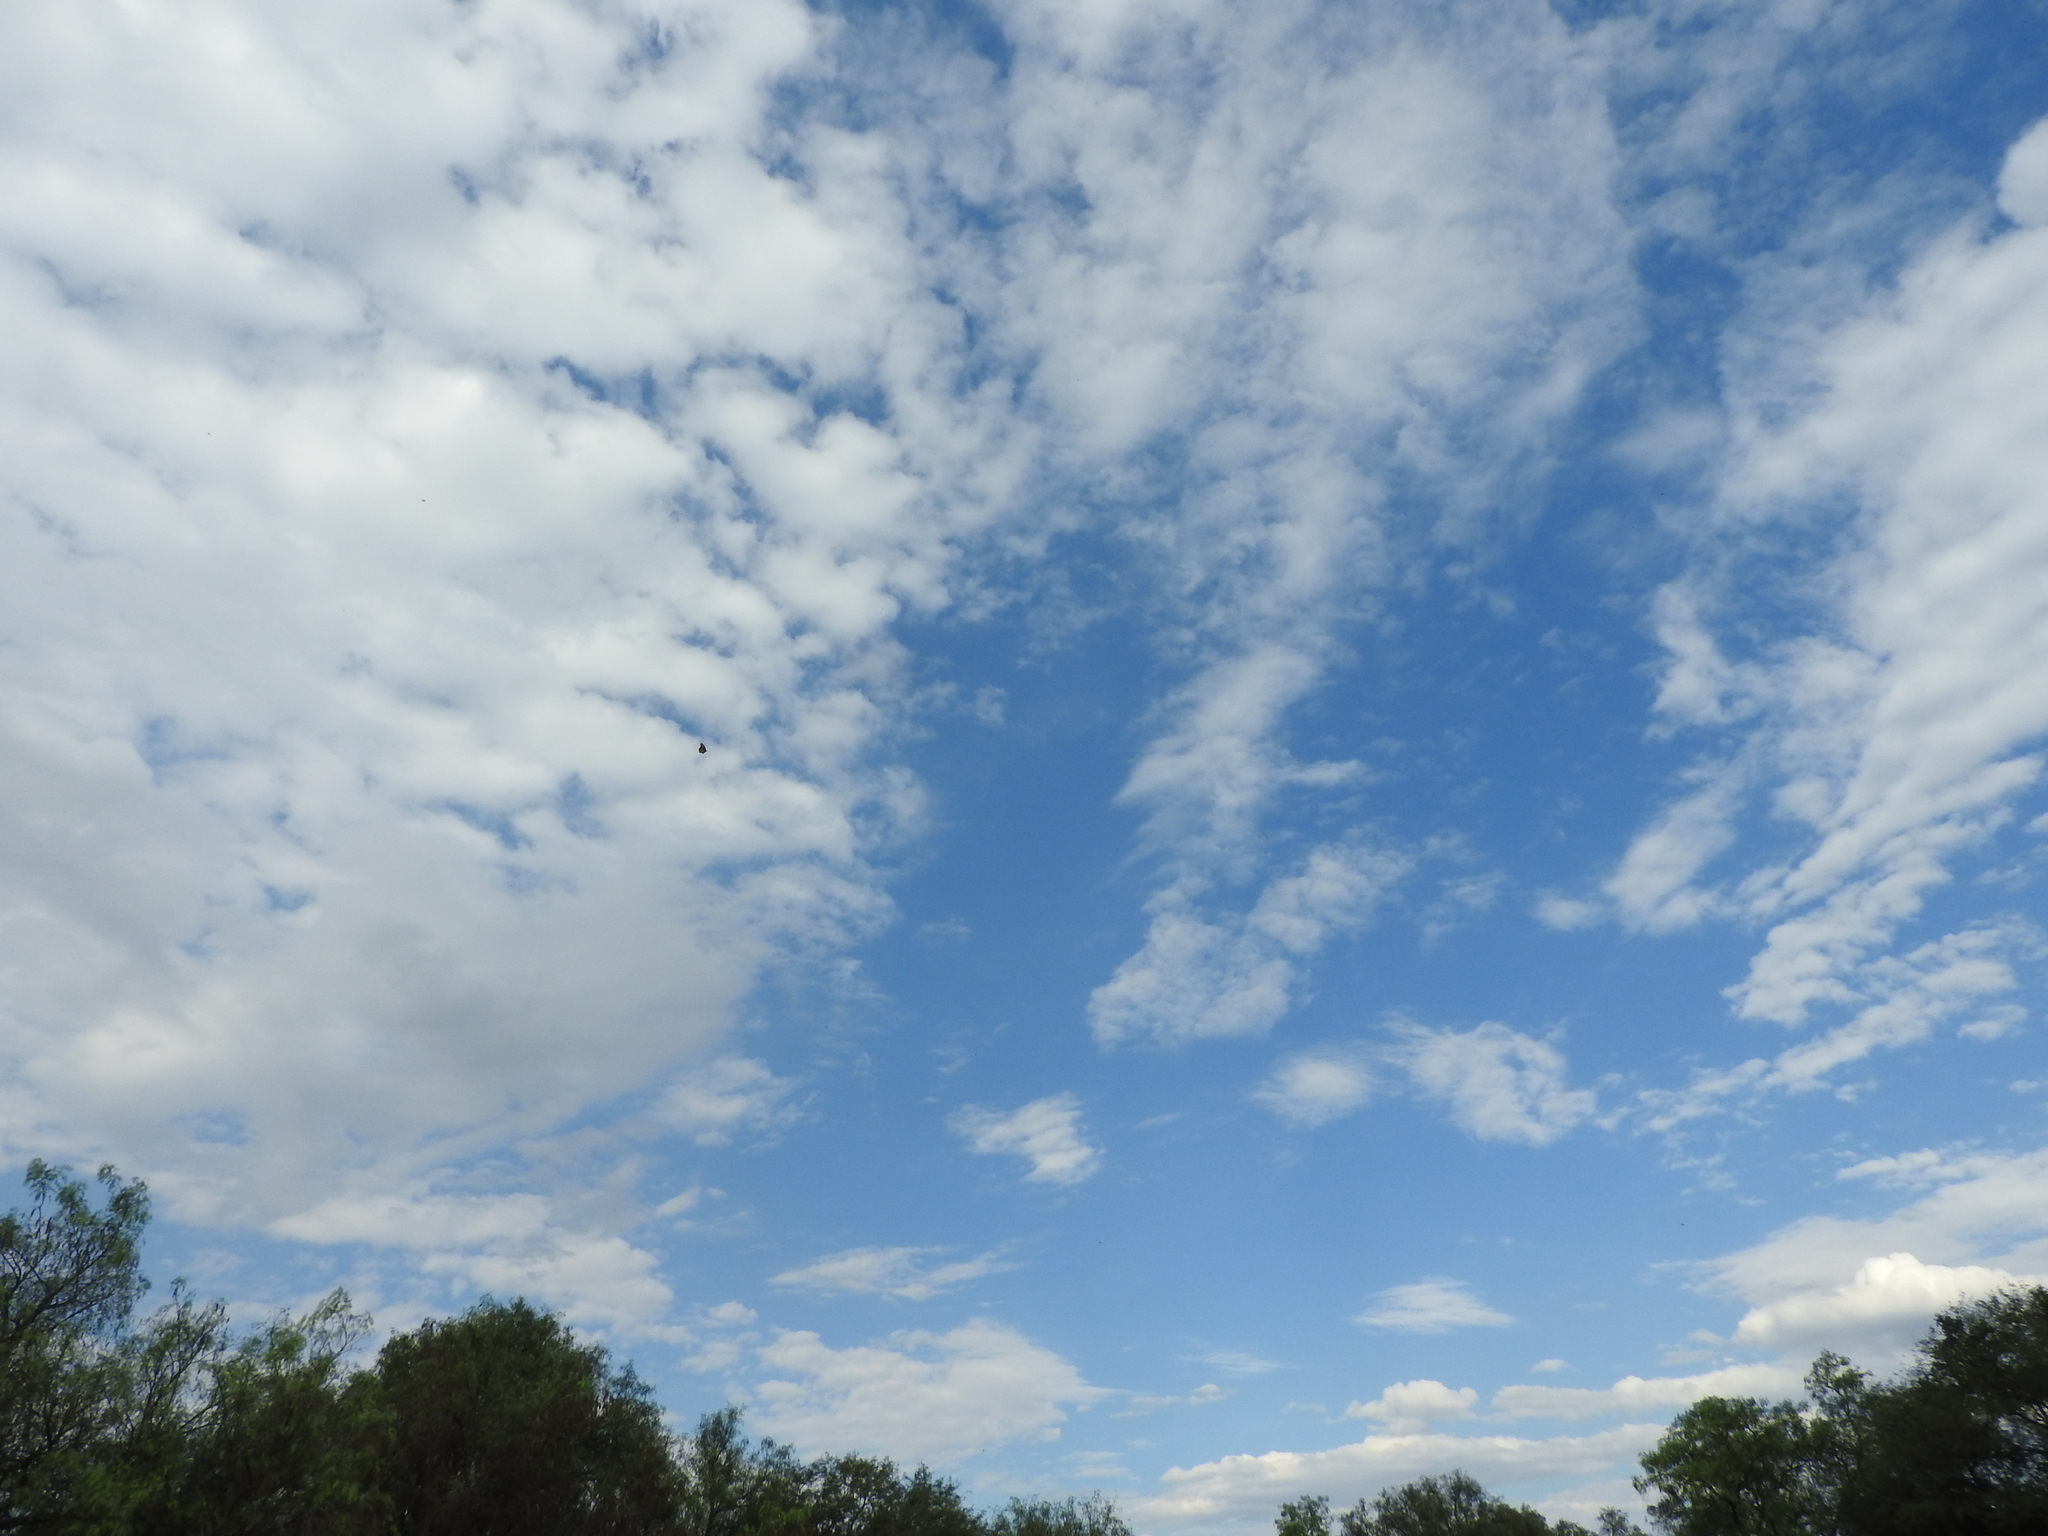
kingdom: Animalia
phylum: Arthropoda
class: Insecta
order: Lepidoptera
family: Nymphalidae
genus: Danaus
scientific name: Danaus plexippus
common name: Monarch
